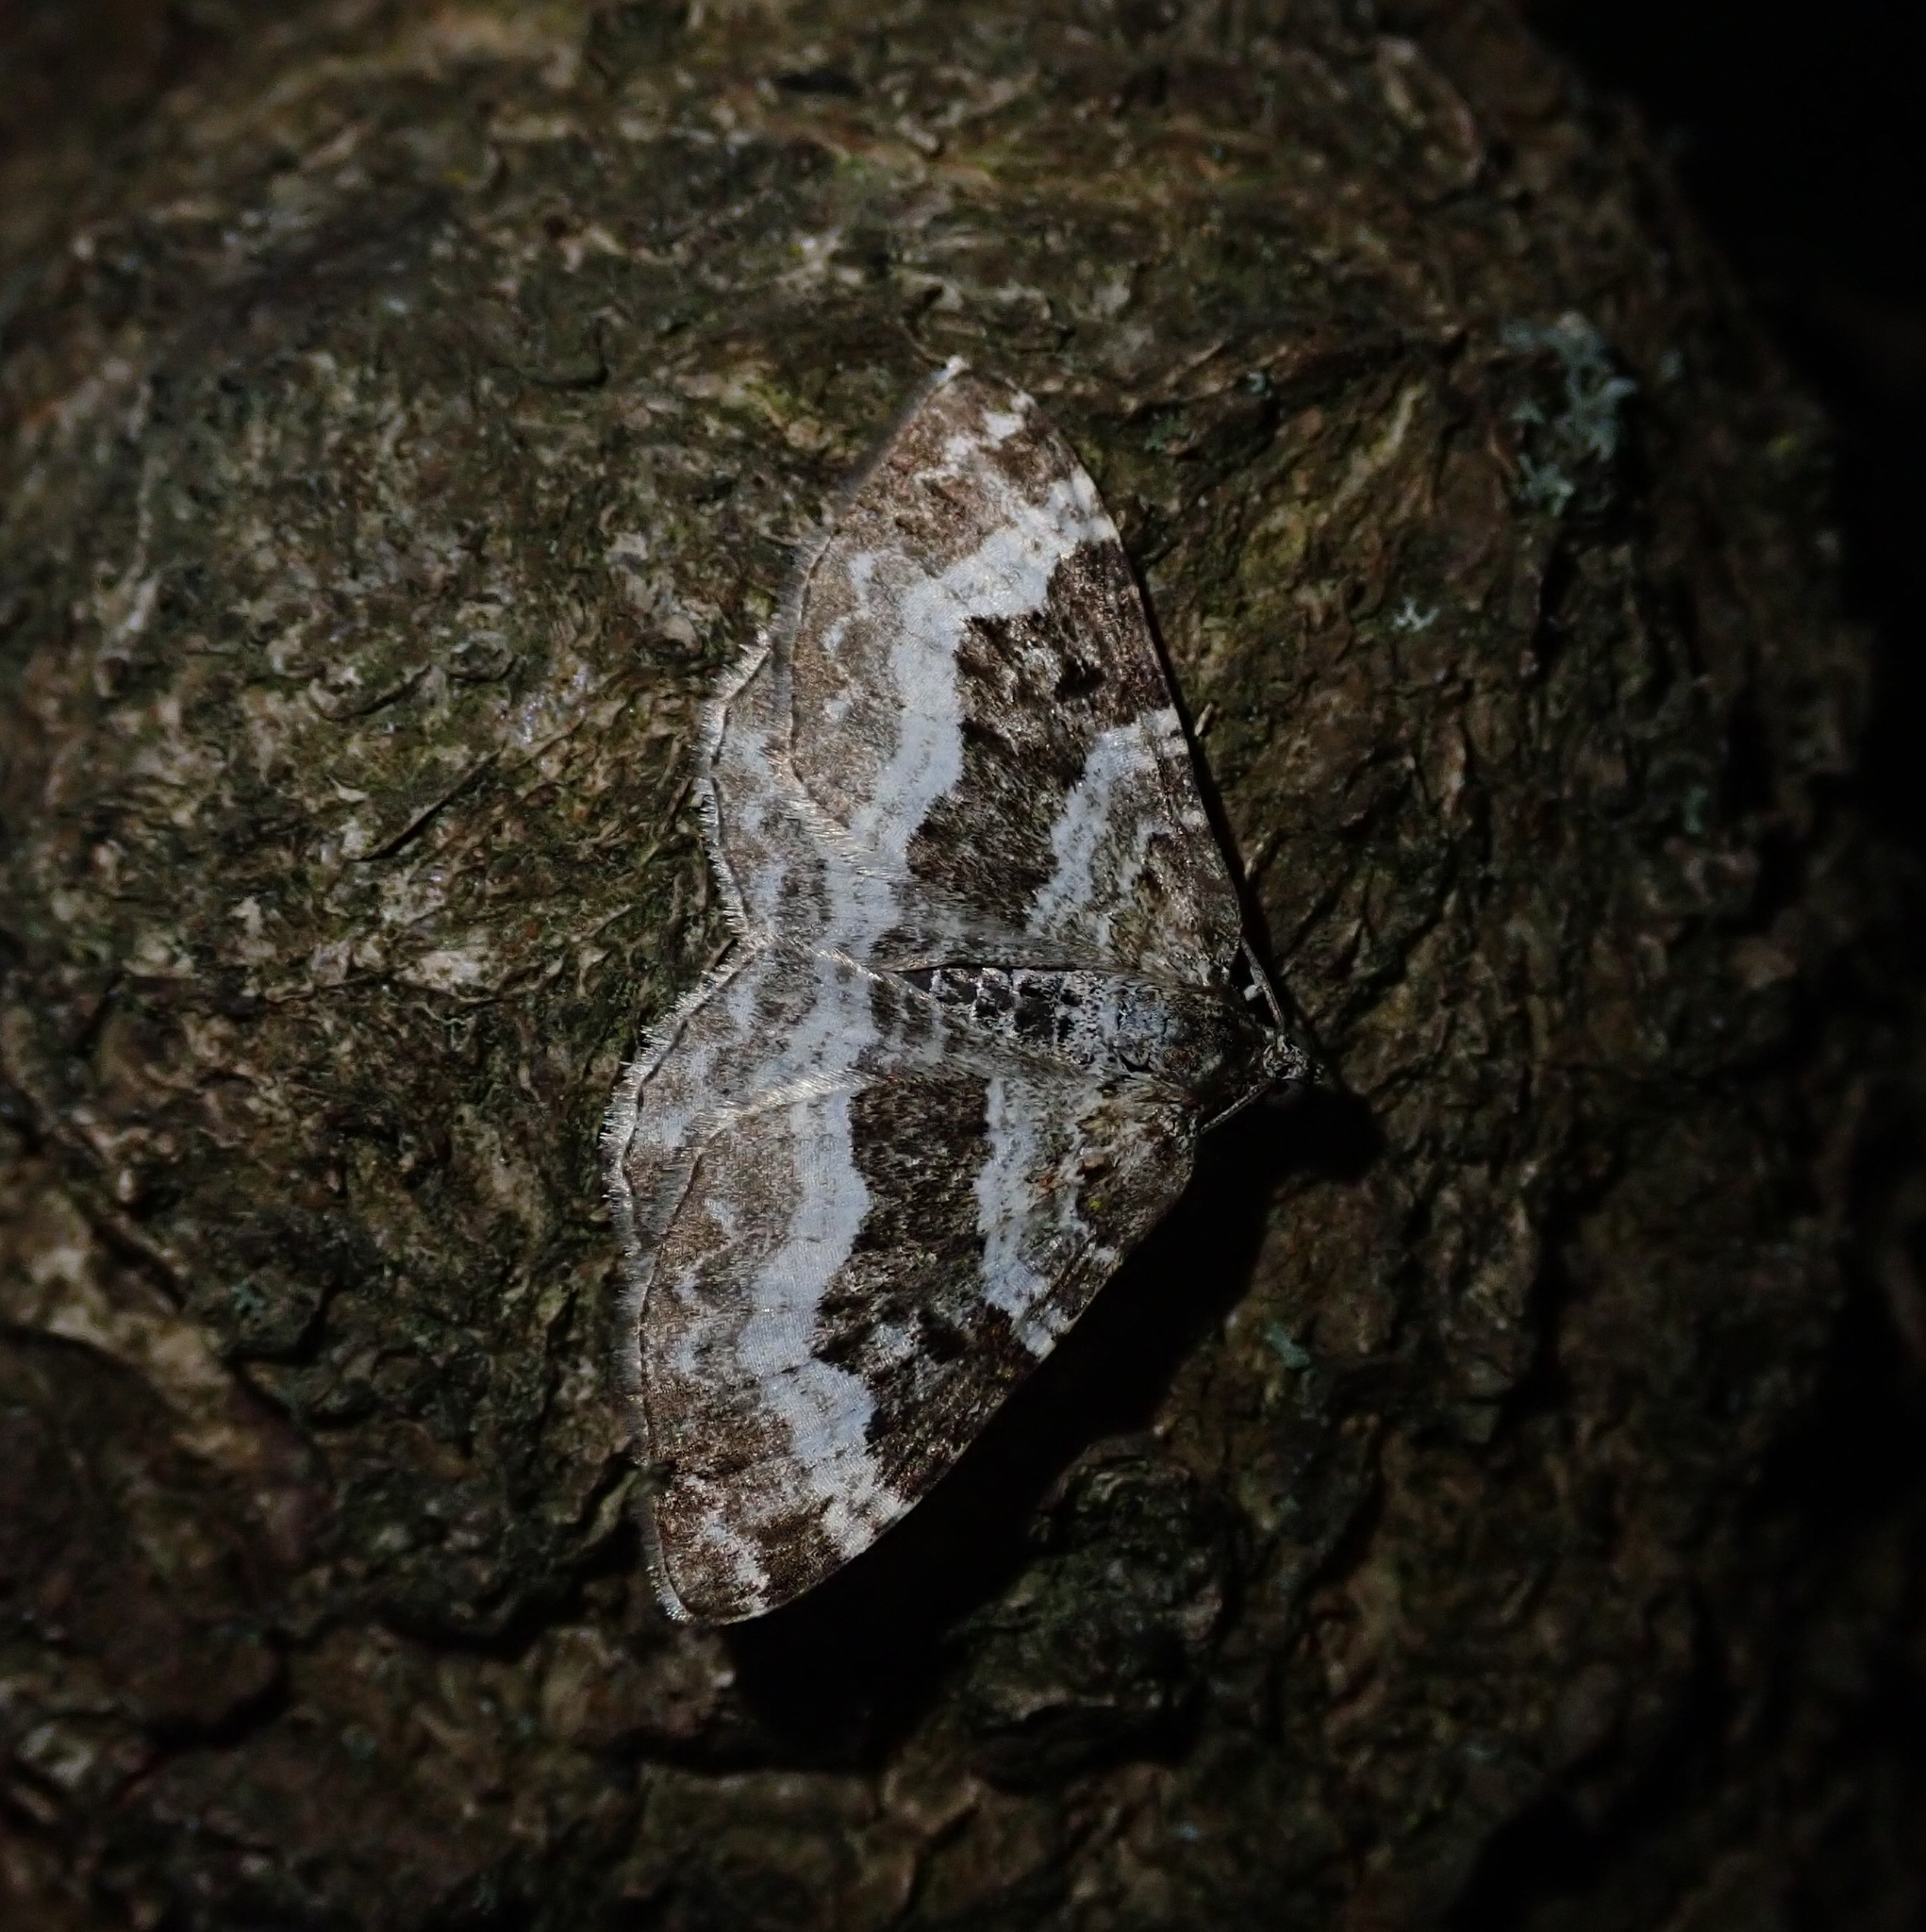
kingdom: Animalia
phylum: Arthropoda
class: Insecta
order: Lepidoptera
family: Geometridae
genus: Epirrhoe
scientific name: Epirrhoe alternata
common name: Common carpet
